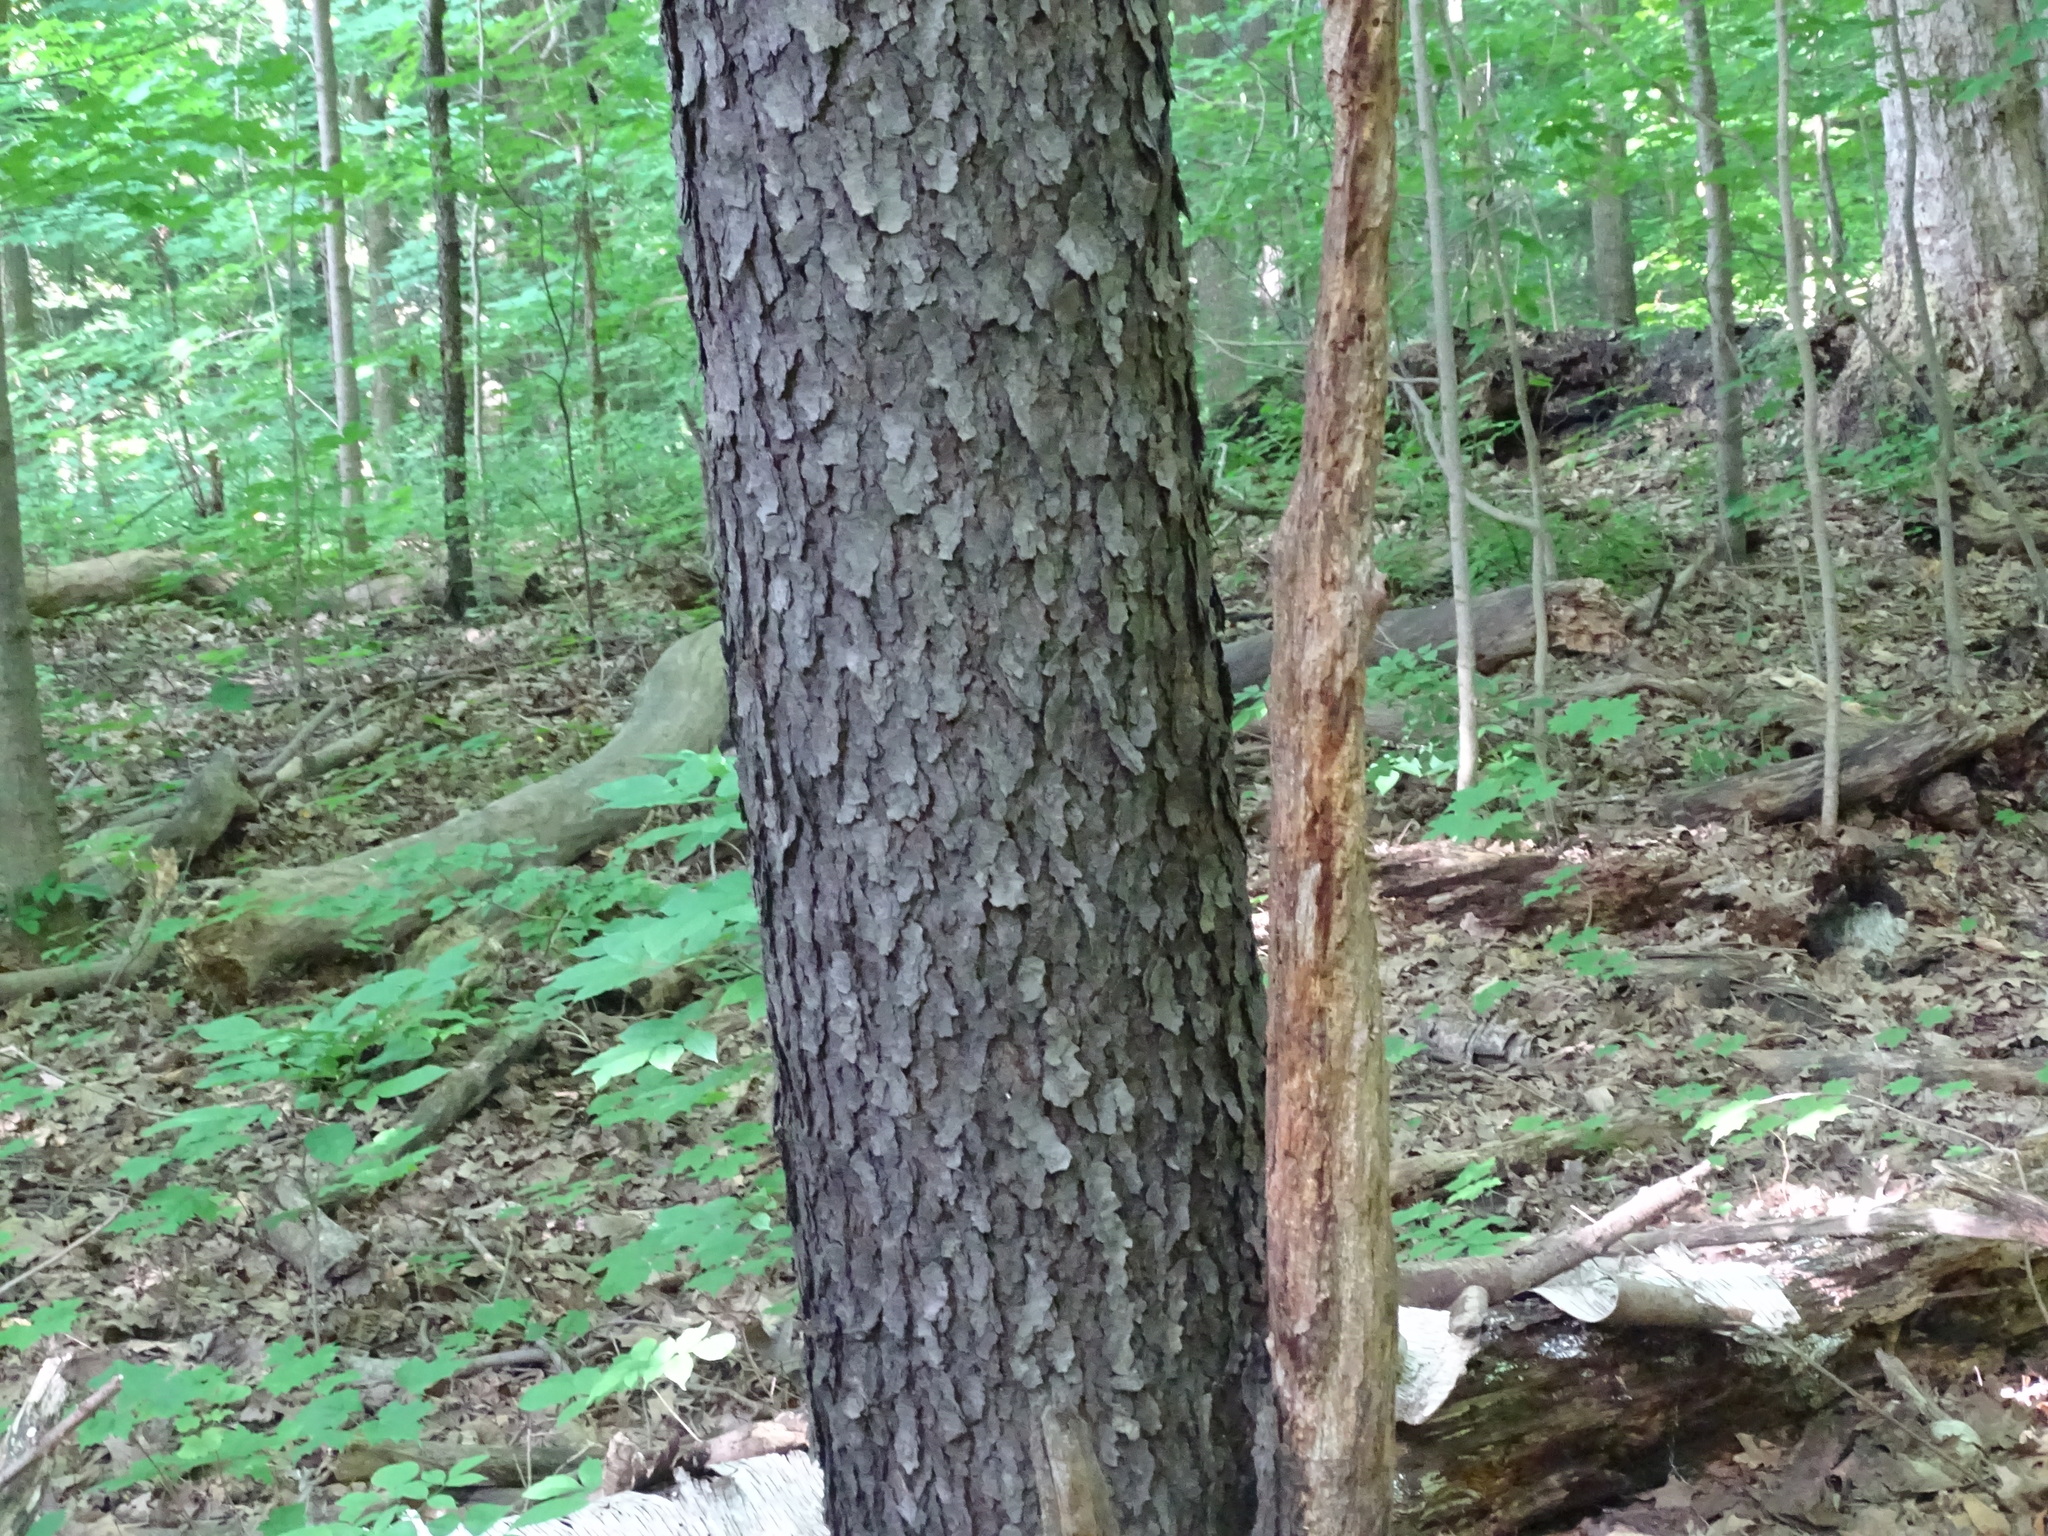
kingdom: Plantae
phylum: Tracheophyta
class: Magnoliopsida
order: Rosales
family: Rosaceae
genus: Prunus
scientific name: Prunus serotina
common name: Black cherry
